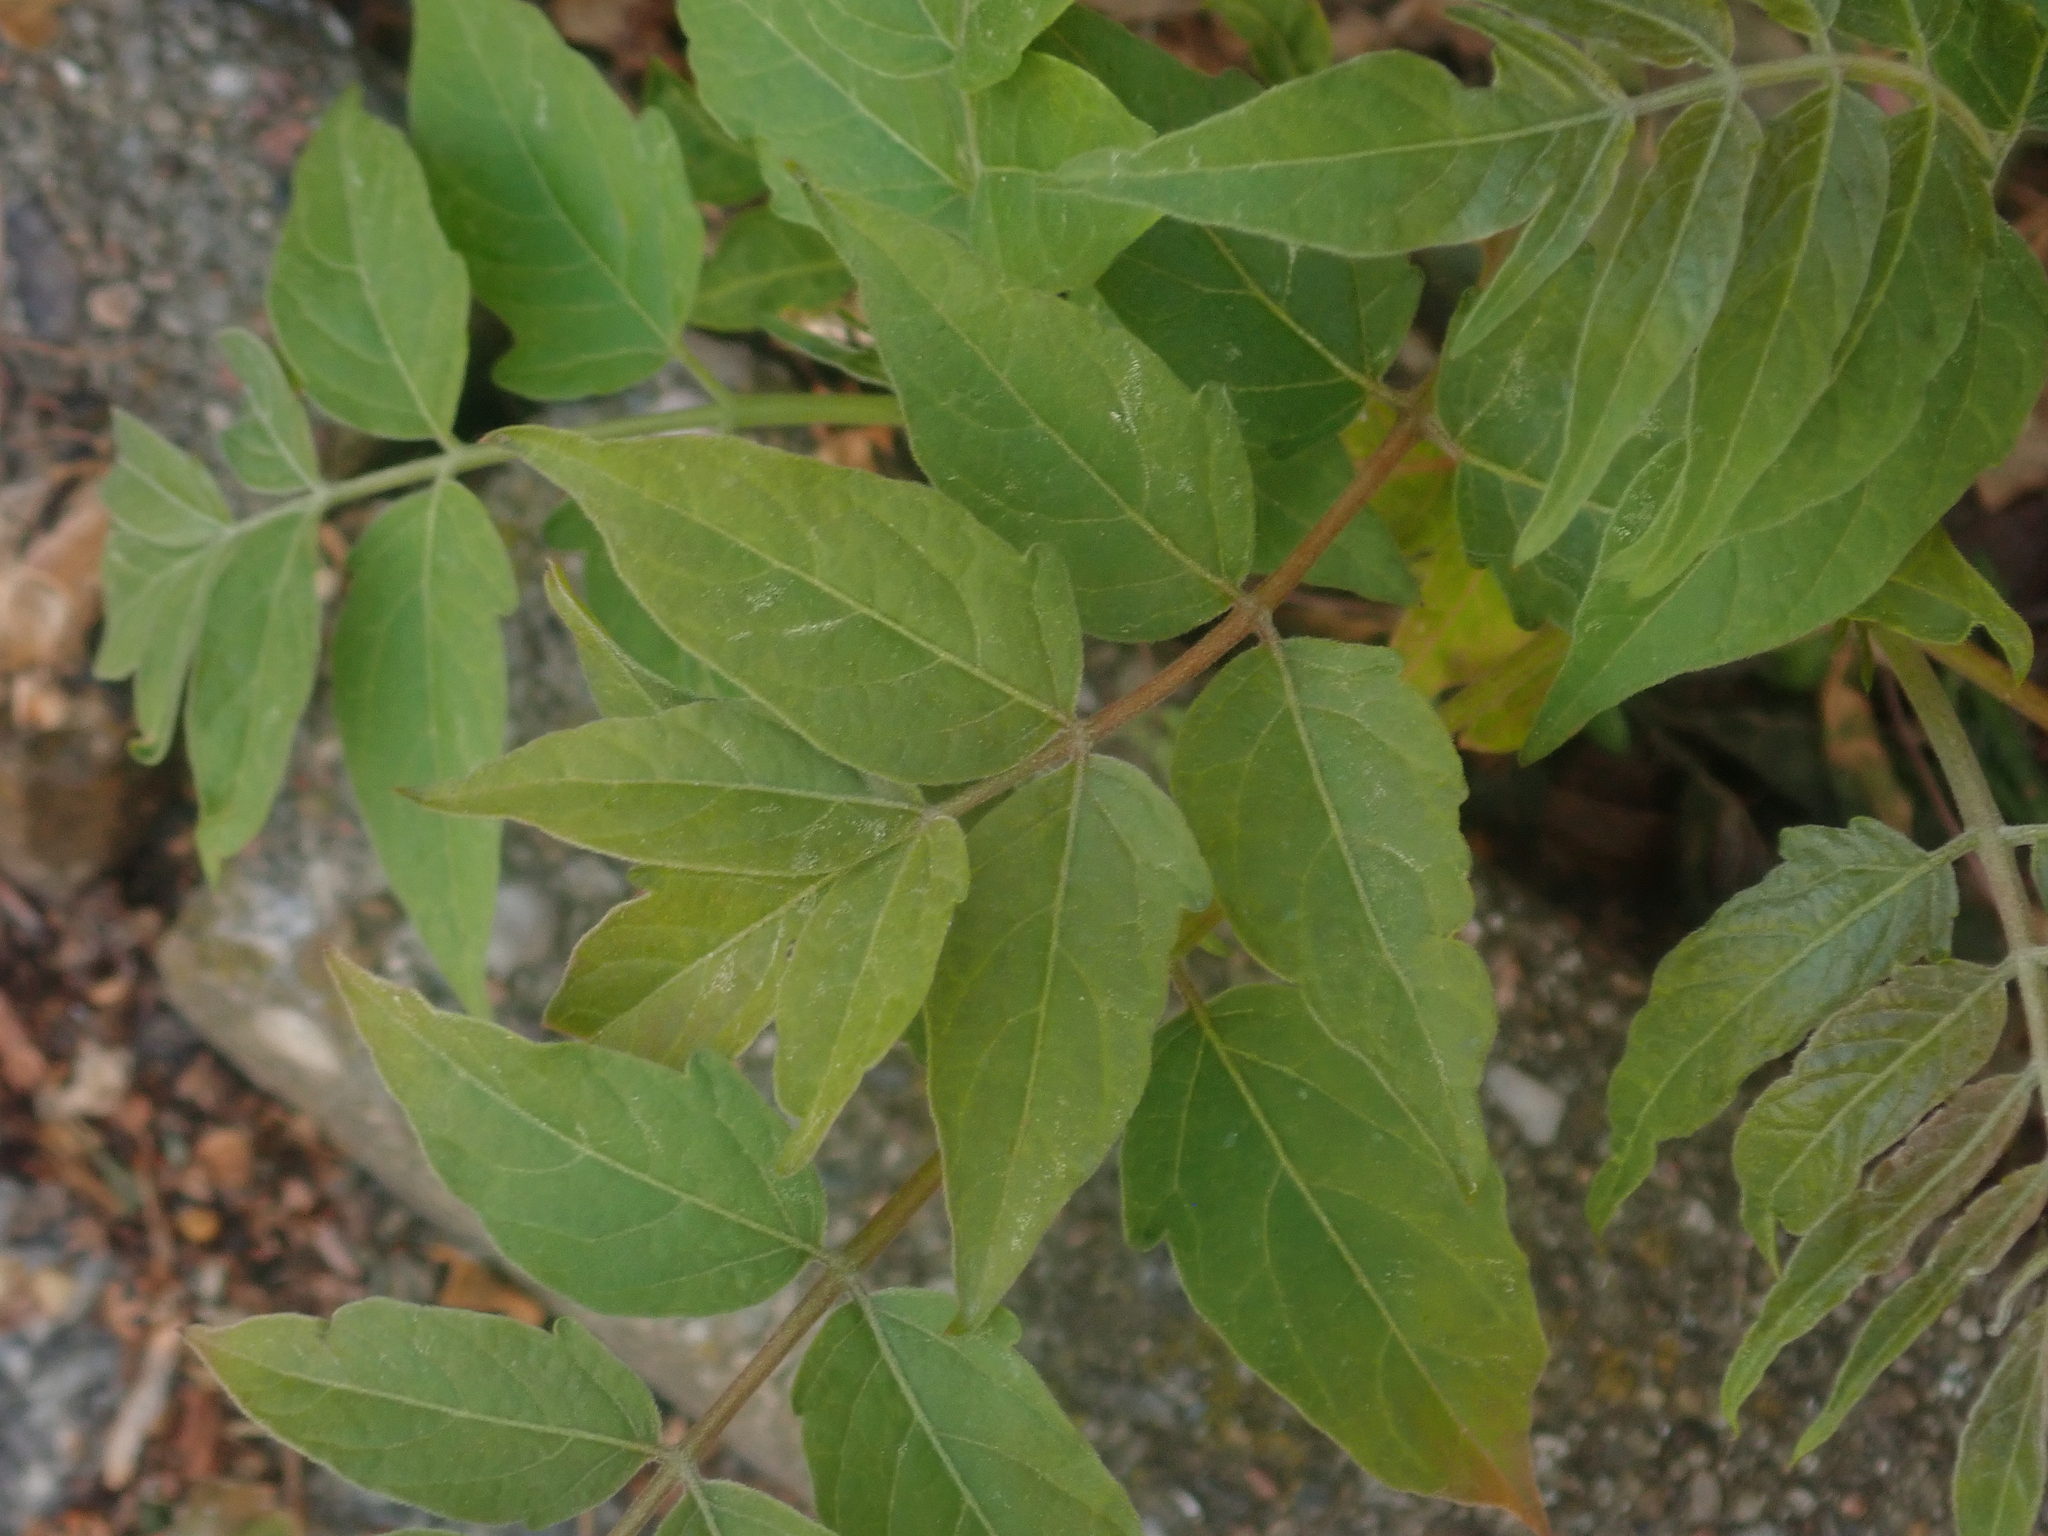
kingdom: Plantae
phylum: Tracheophyta
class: Magnoliopsida
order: Sapindales
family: Simaroubaceae
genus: Ailanthus
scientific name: Ailanthus altissima
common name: Tree-of-heaven
